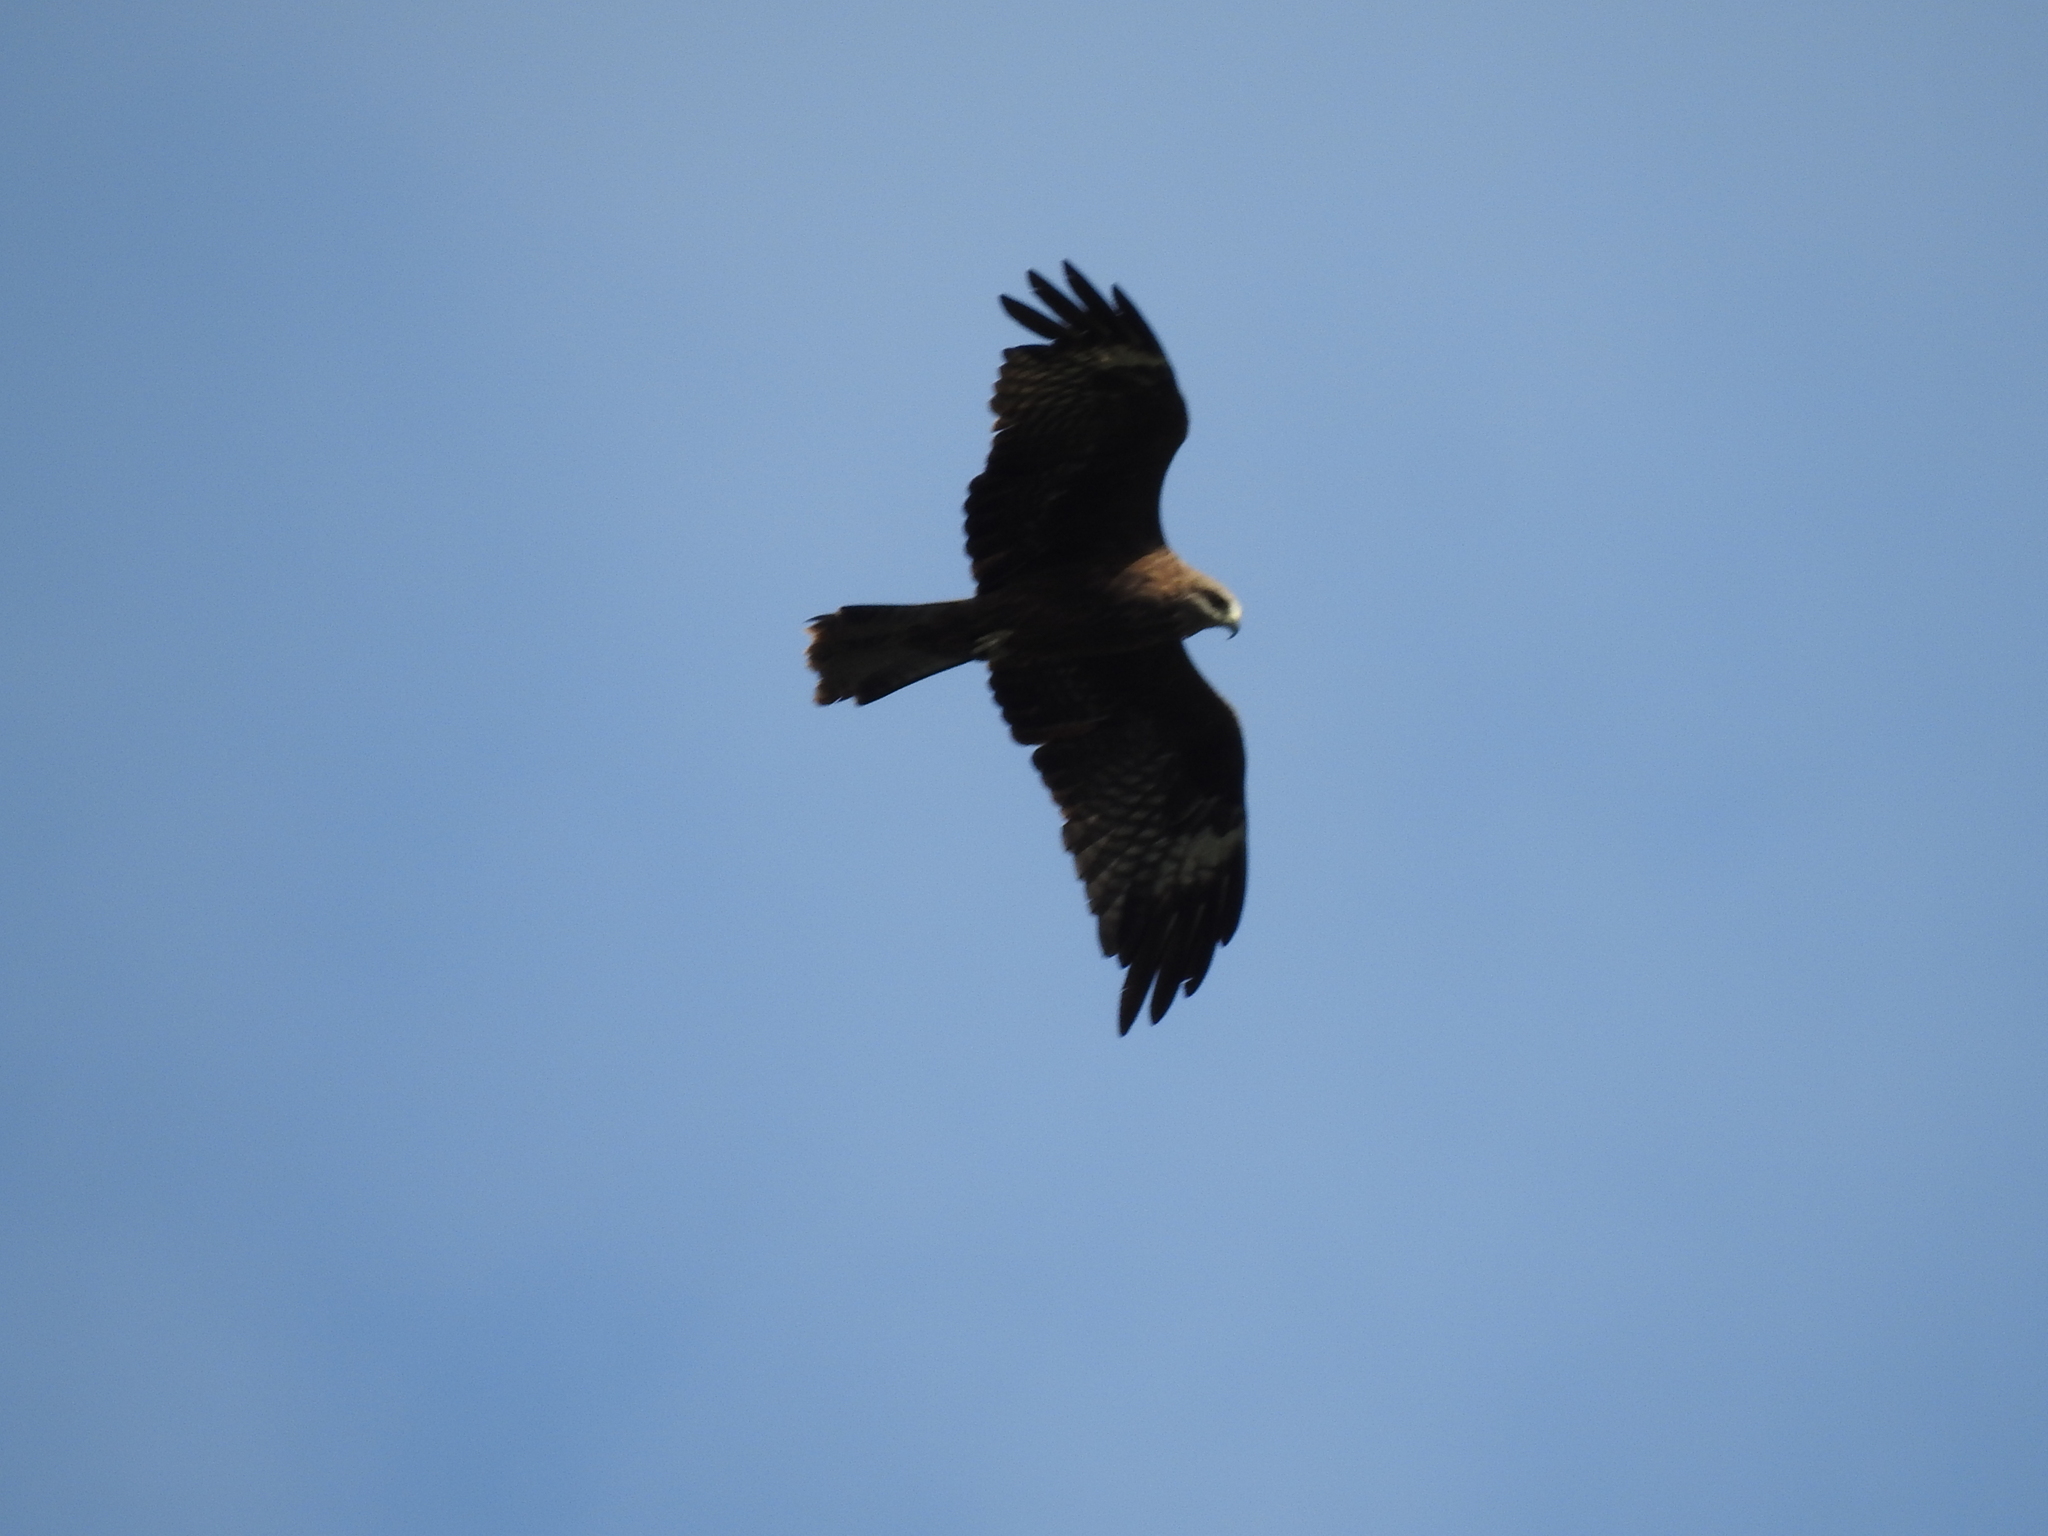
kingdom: Animalia
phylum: Chordata
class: Aves
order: Accipitriformes
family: Accipitridae
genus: Milvus
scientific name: Milvus migrans
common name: Black kite
